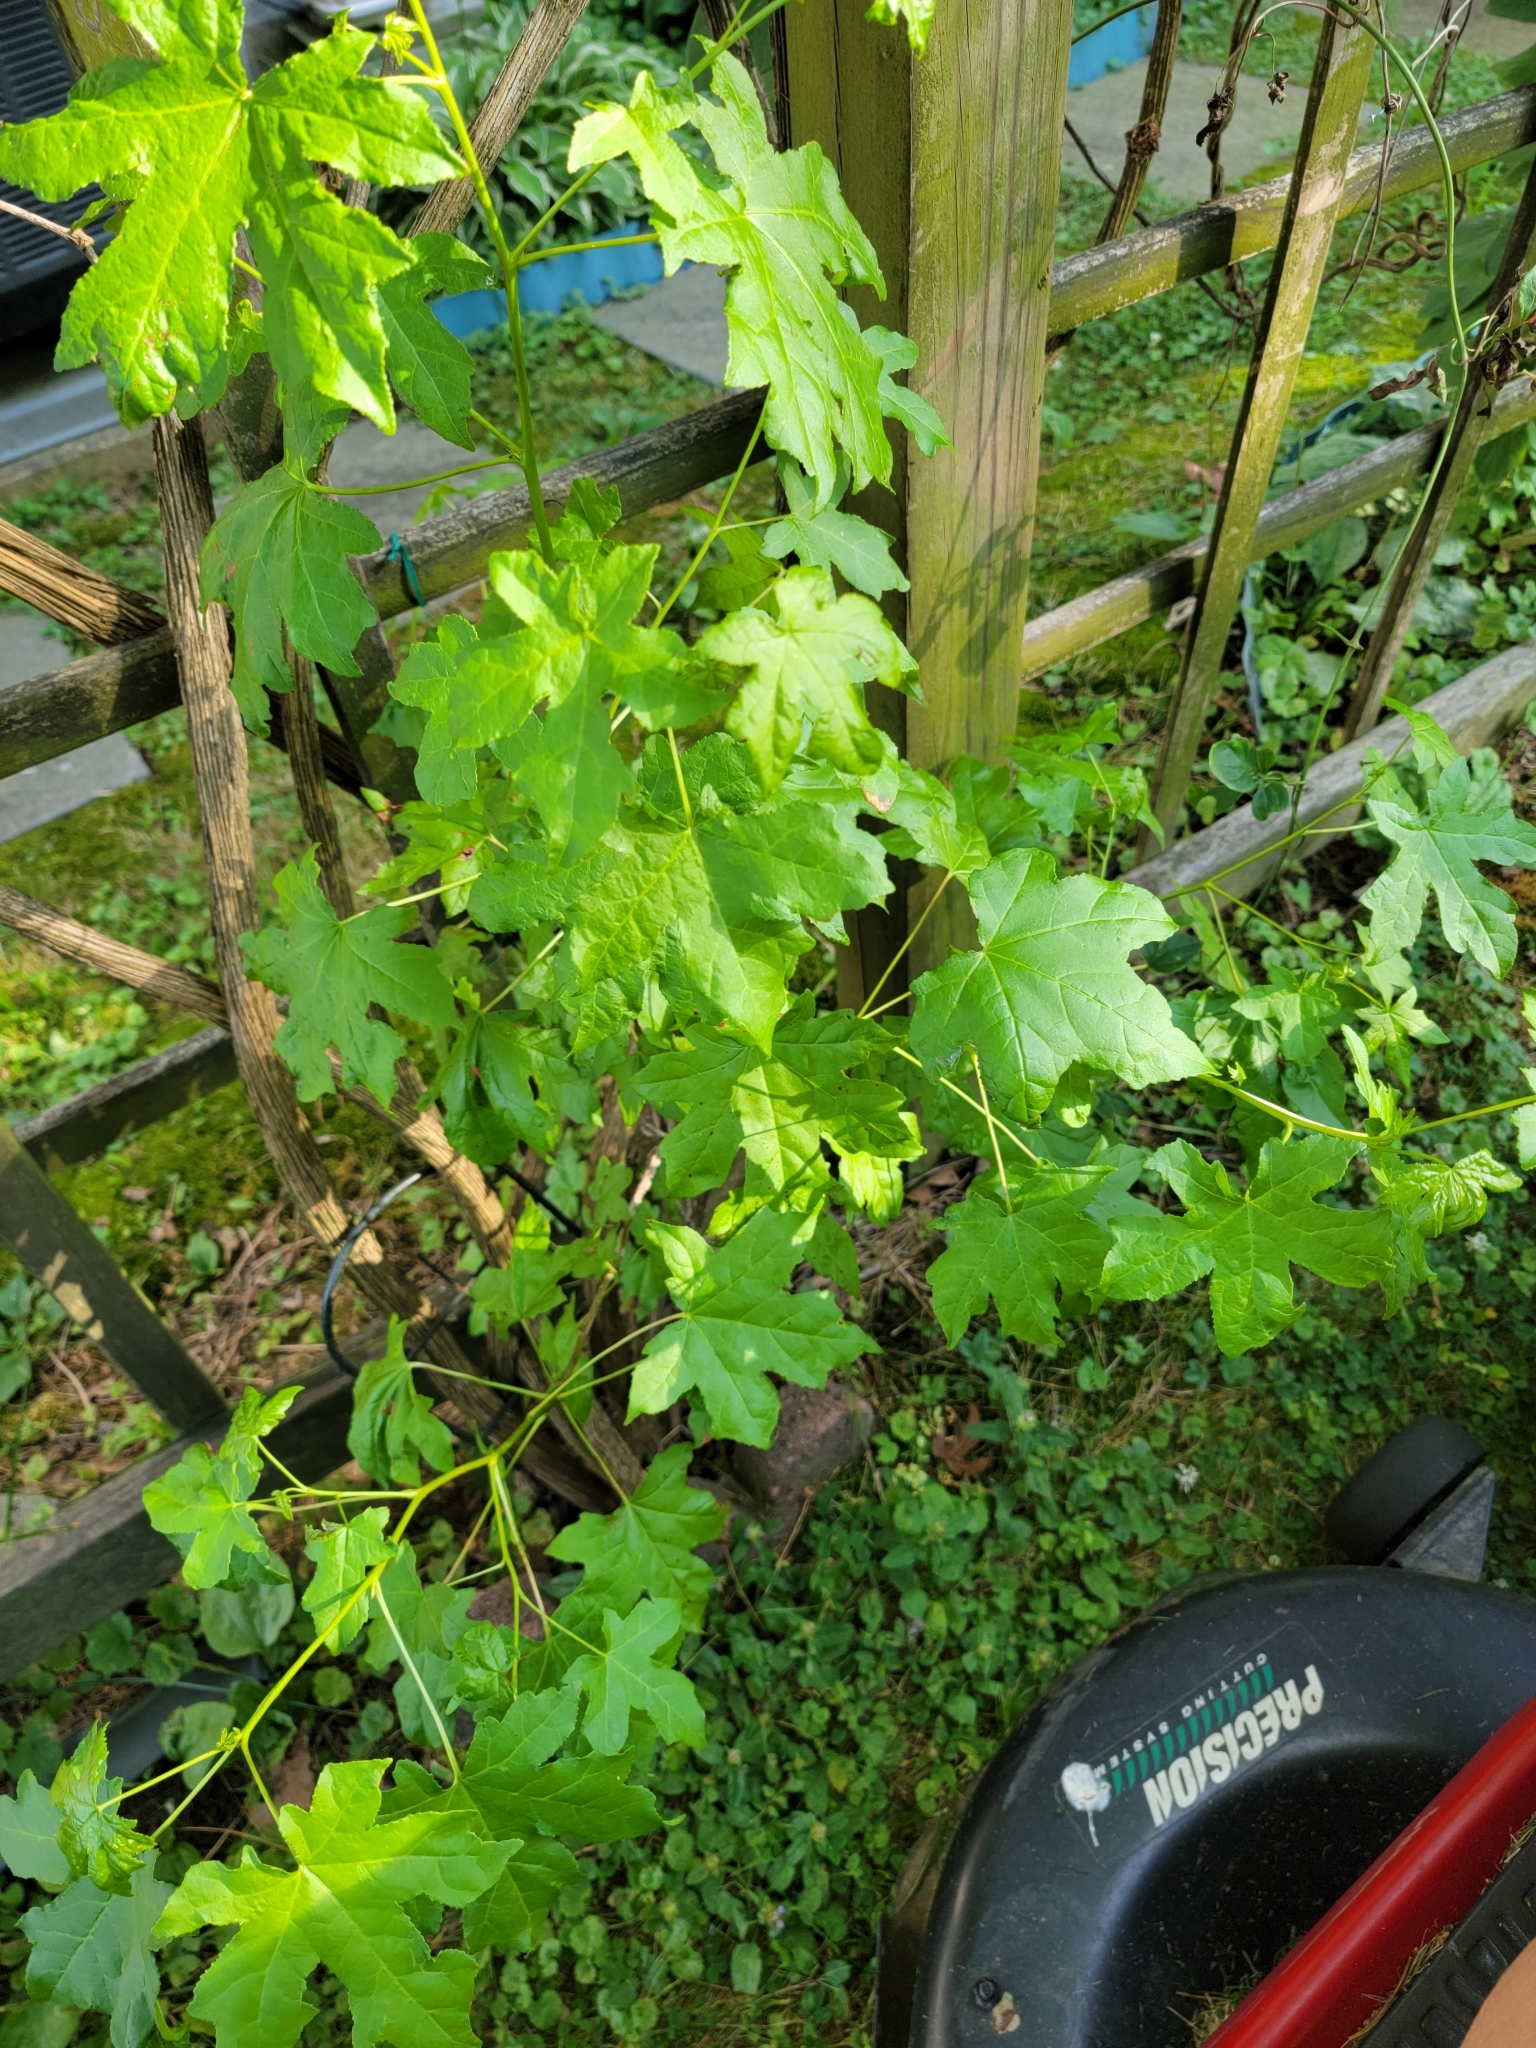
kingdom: Plantae
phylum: Tracheophyta
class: Magnoliopsida
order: Saxifragales
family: Altingiaceae
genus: Liquidambar
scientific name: Liquidambar styraciflua
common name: Sweet gum
